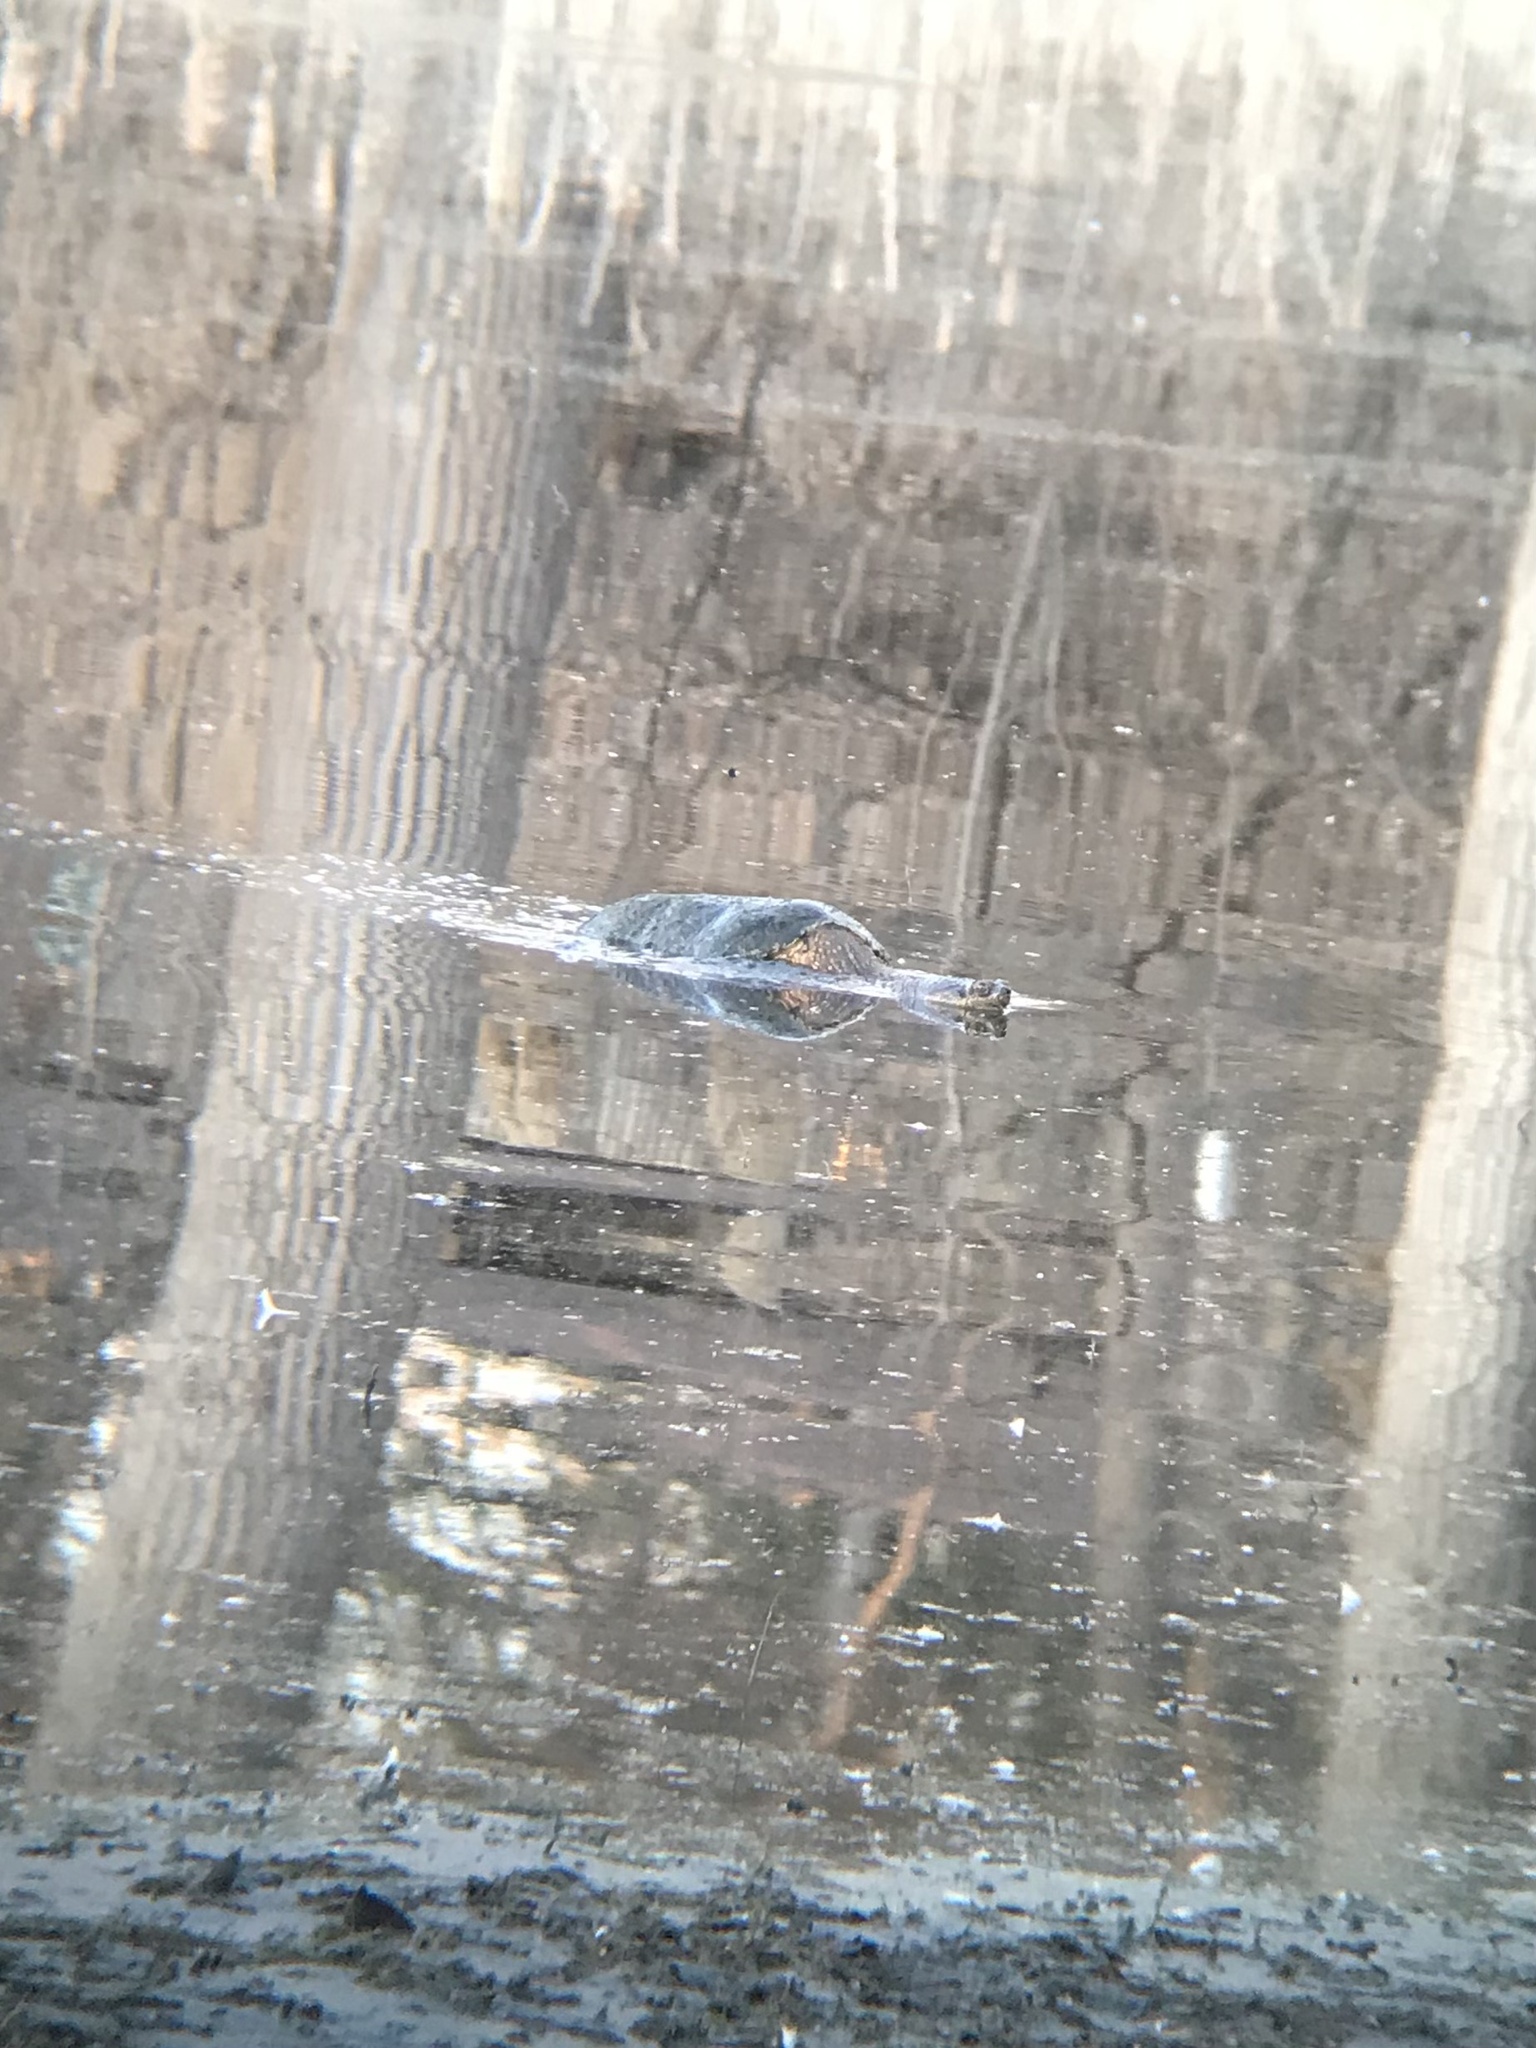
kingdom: Animalia
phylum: Chordata
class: Testudines
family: Chelydridae
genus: Chelydra
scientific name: Chelydra serpentina
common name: Common snapping turtle
